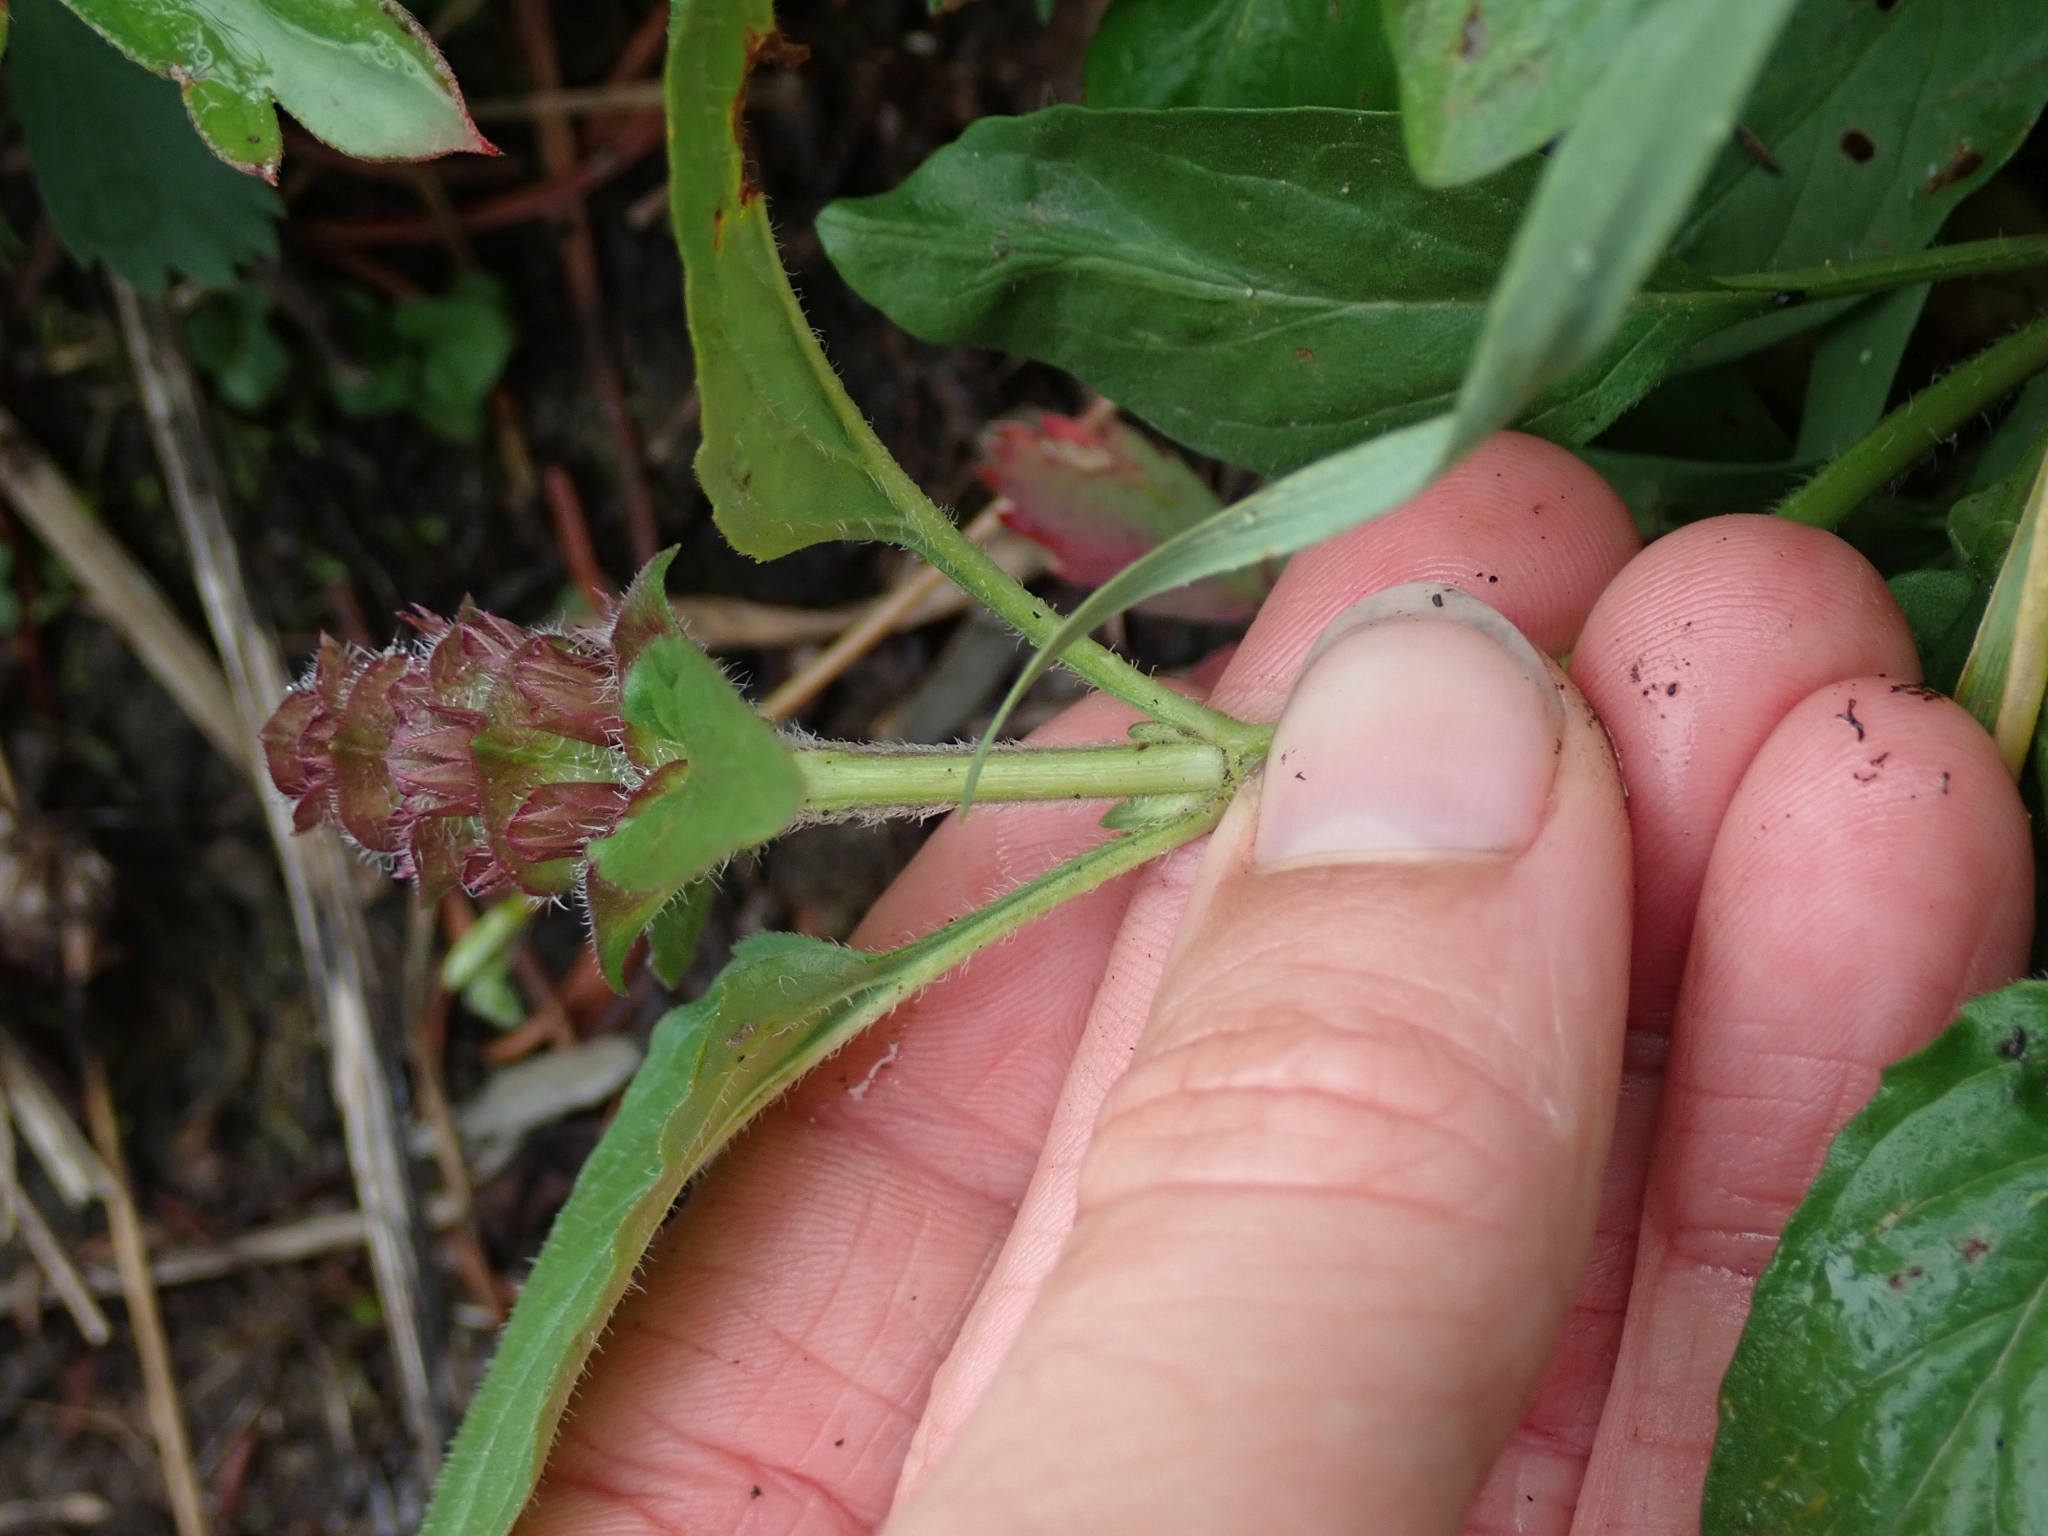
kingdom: Plantae
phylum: Tracheophyta
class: Magnoliopsida
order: Lamiales
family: Lamiaceae
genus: Prunella
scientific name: Prunella vulgaris
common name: Heal-all
